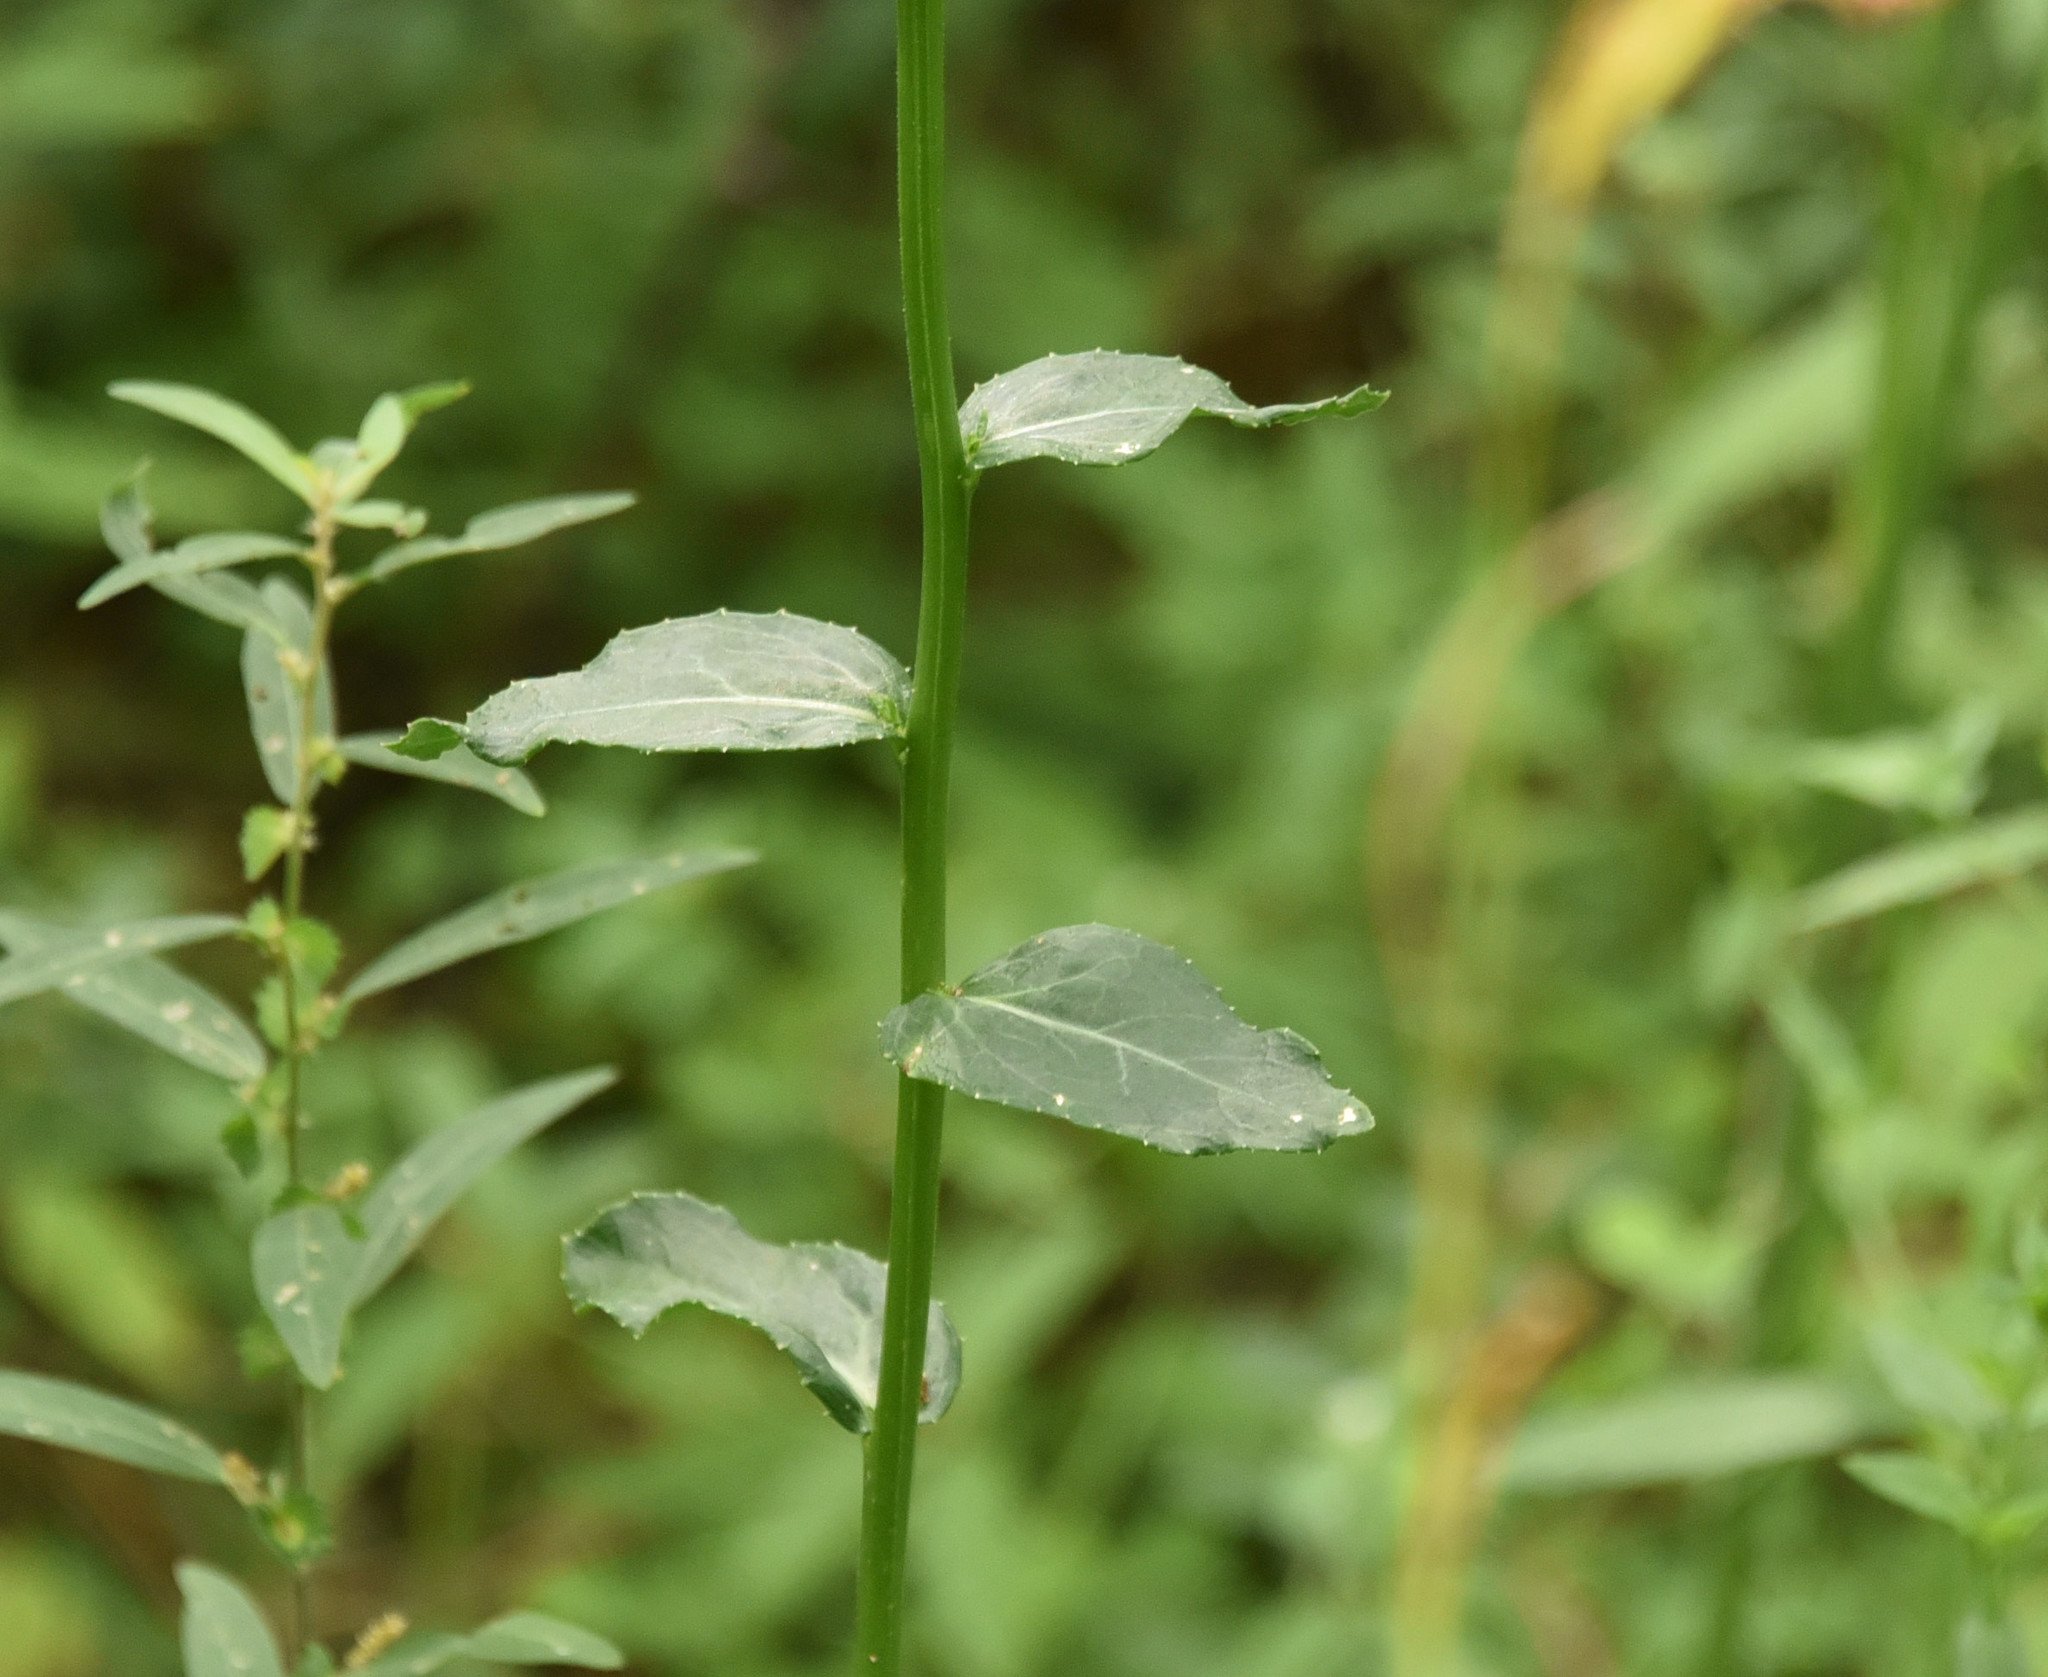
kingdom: Plantae
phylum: Tracheophyta
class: Magnoliopsida
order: Asterales
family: Campanulaceae
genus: Lobelia
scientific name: Lobelia puberula
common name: Purple dewdrop
